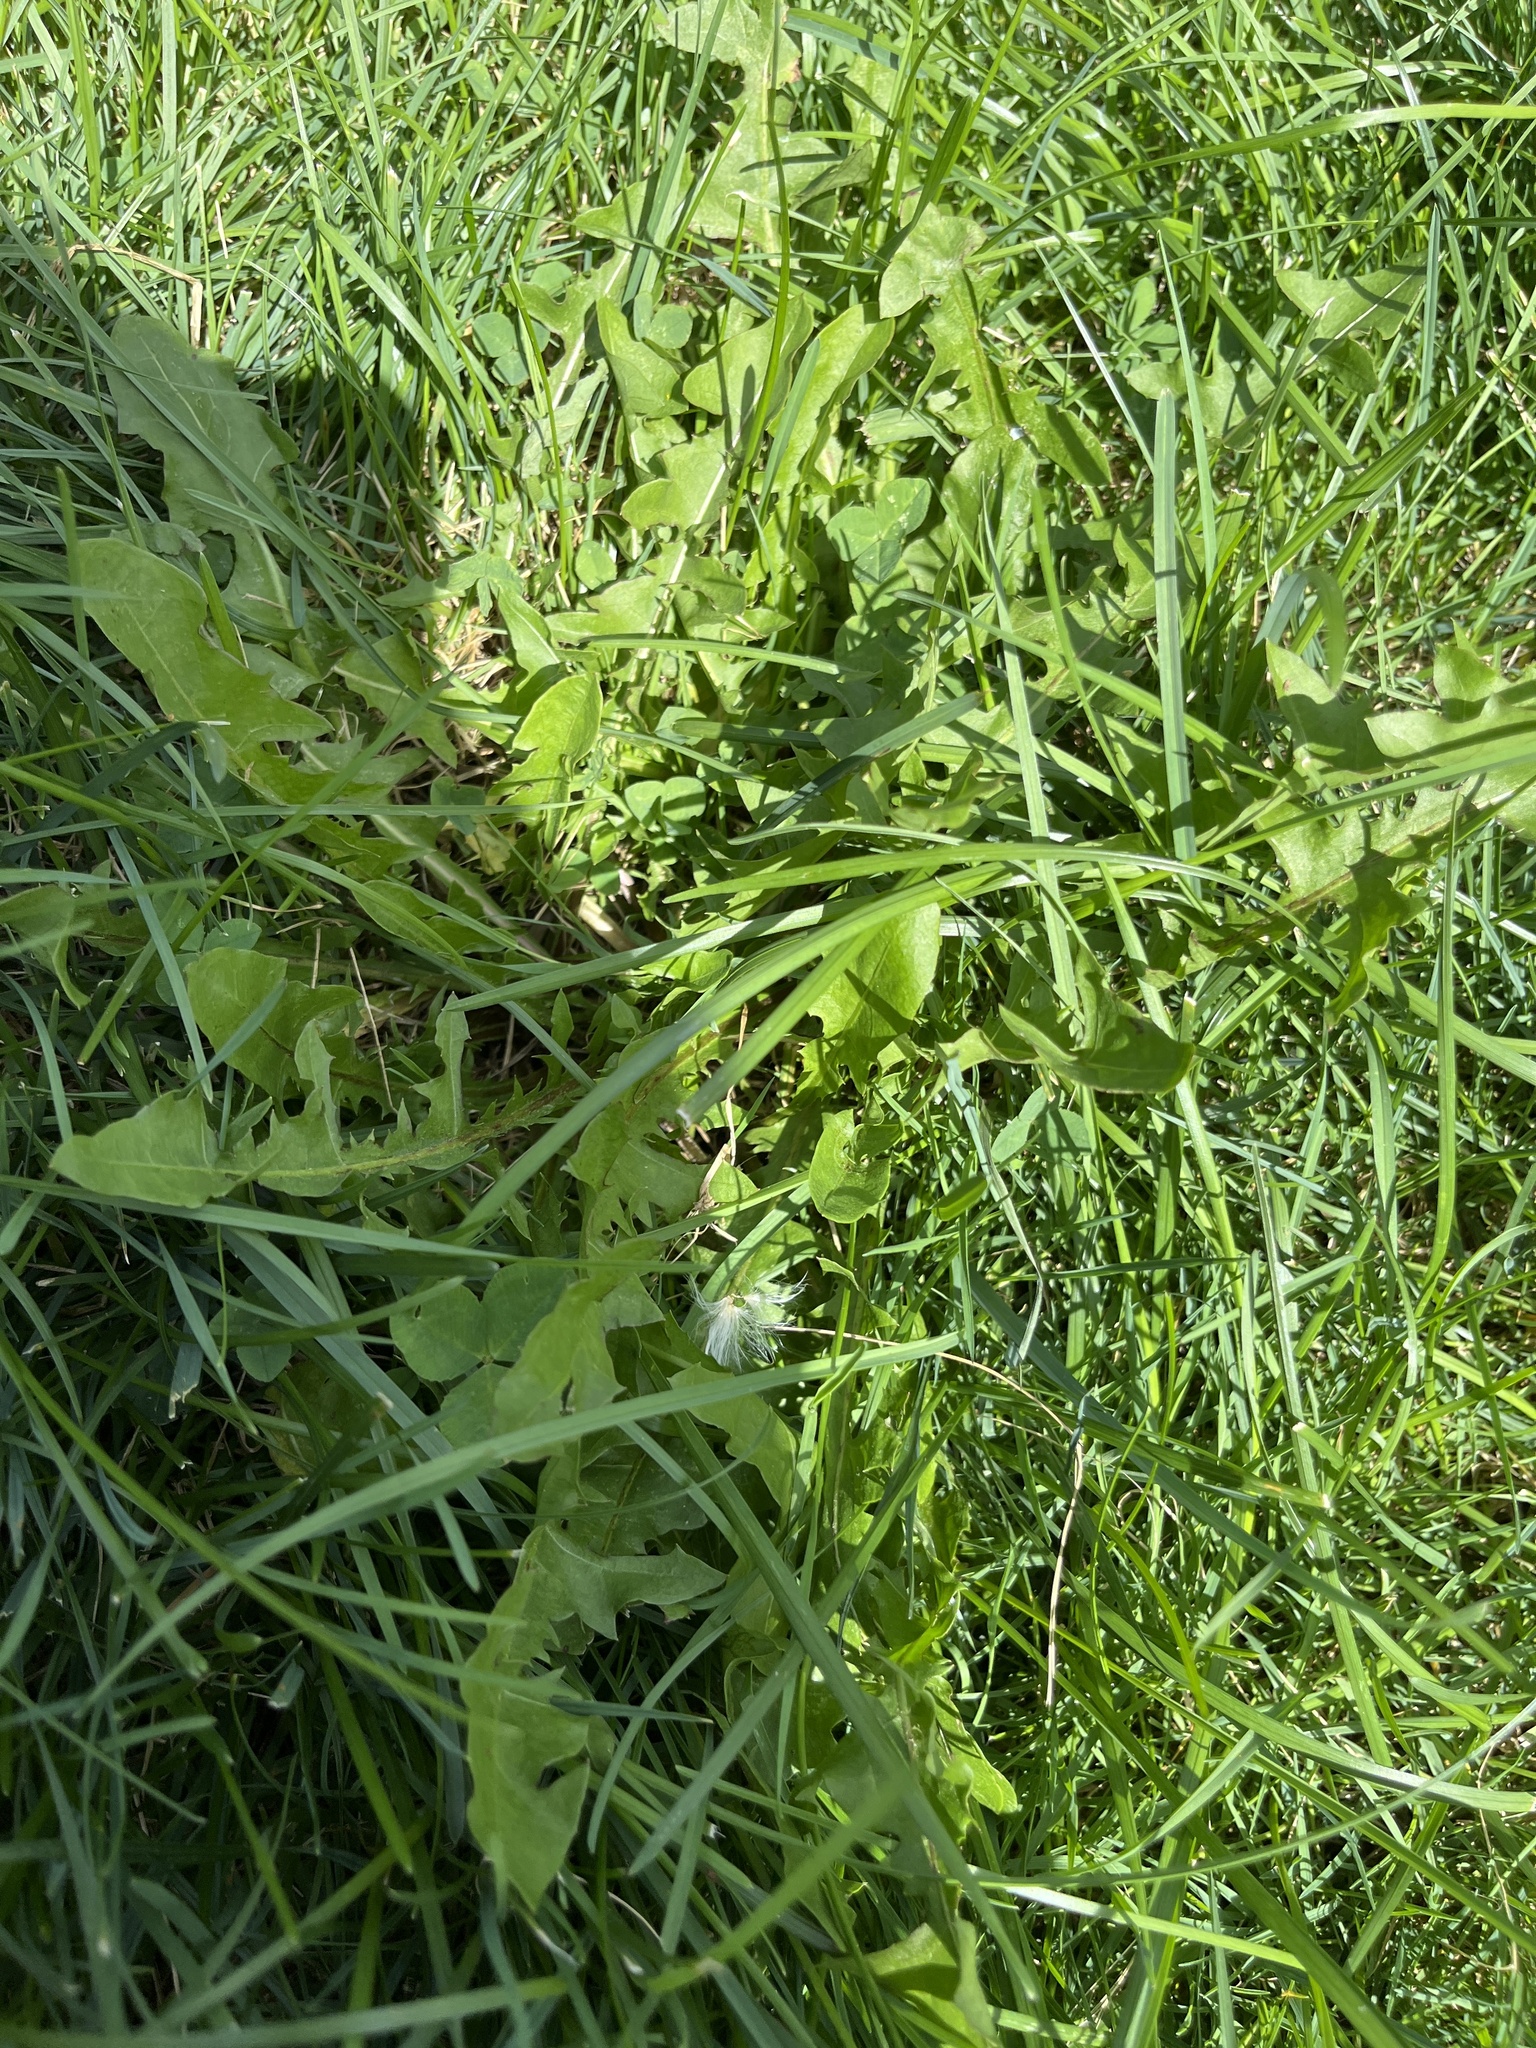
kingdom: Plantae
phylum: Tracheophyta
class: Magnoliopsida
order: Asterales
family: Asteraceae
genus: Taraxacum
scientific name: Taraxacum officinale
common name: Common dandelion
